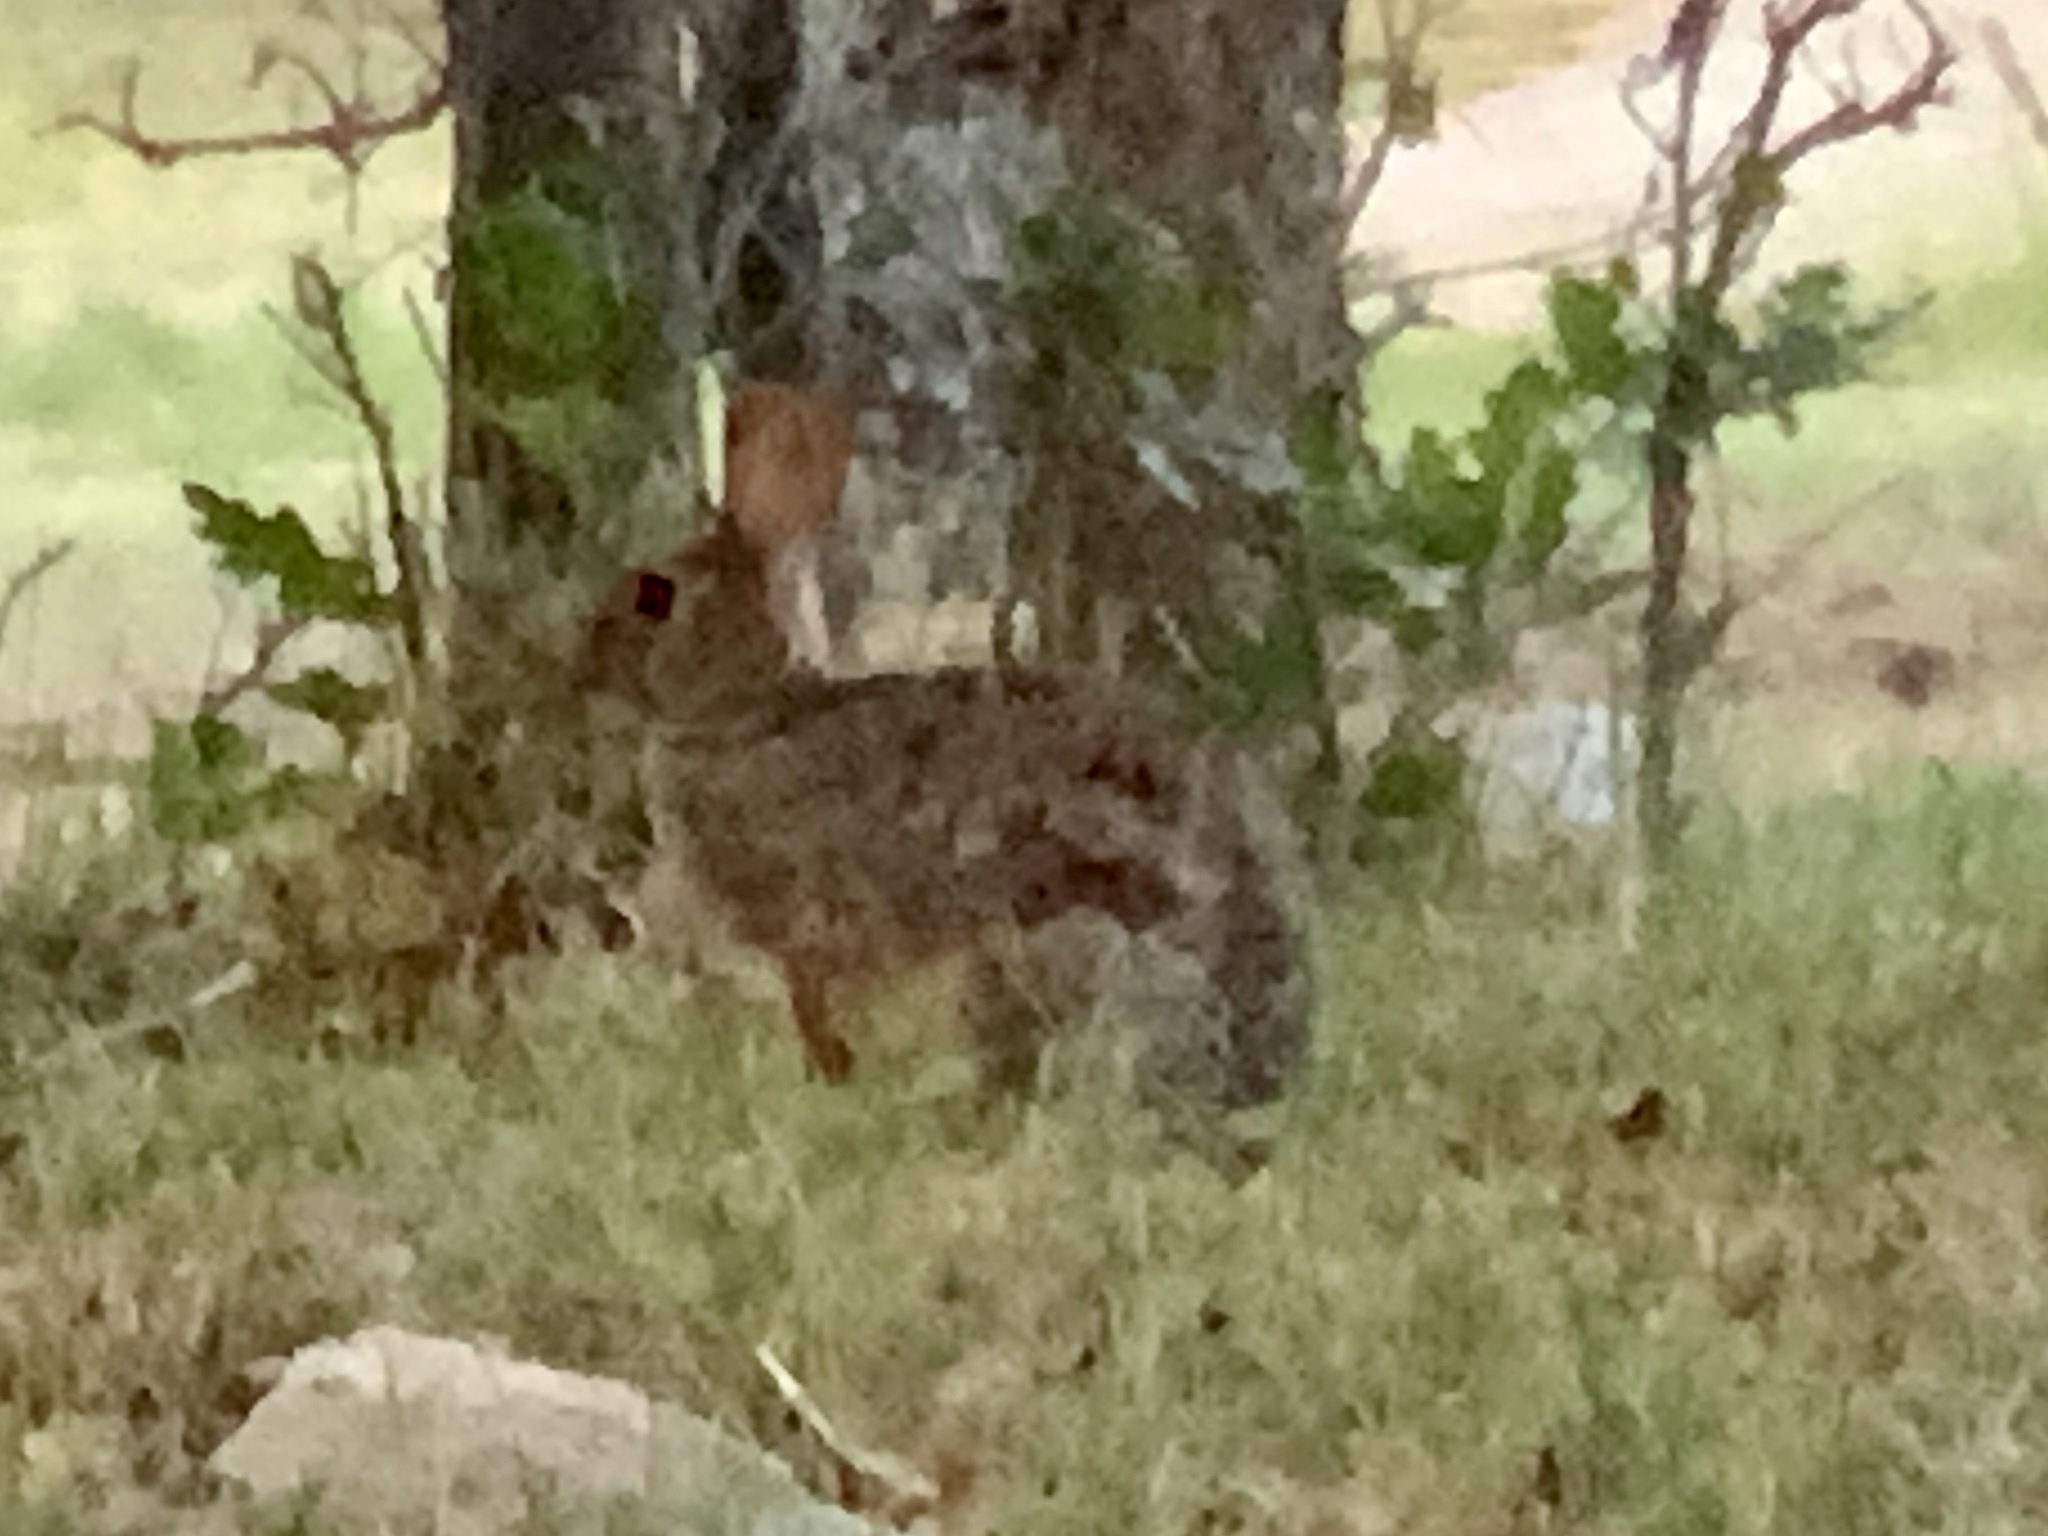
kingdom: Animalia
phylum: Chordata
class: Mammalia
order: Lagomorpha
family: Leporidae
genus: Sylvilagus
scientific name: Sylvilagus
